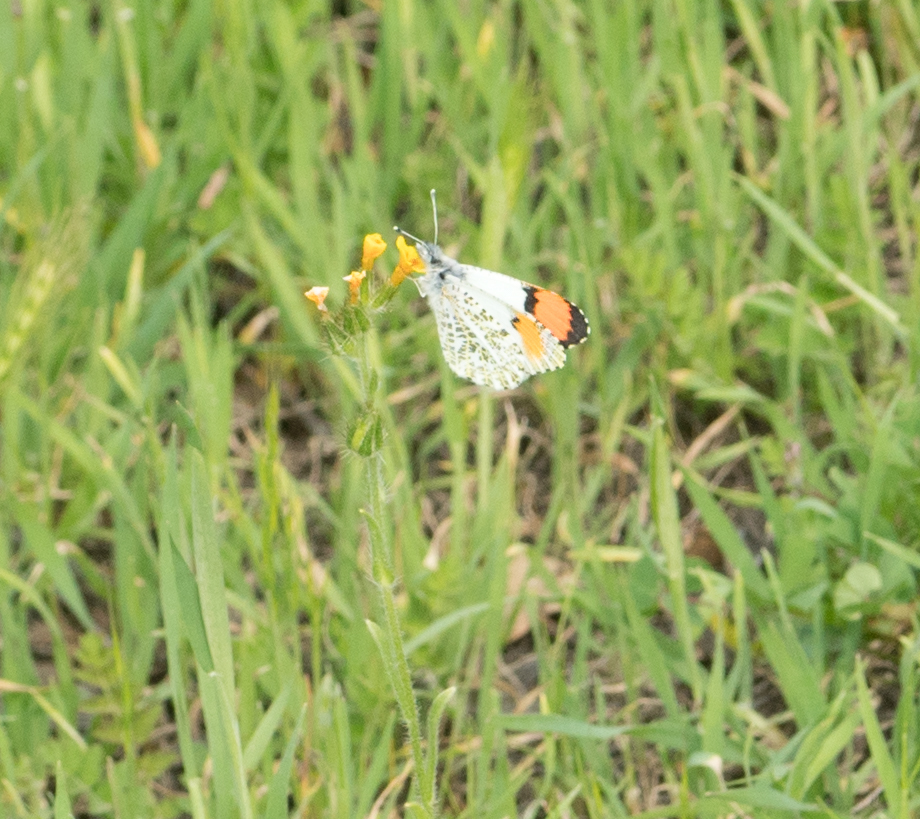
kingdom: Animalia
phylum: Arthropoda
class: Insecta
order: Lepidoptera
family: Pieridae
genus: Anthocharis
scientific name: Anthocharis sara
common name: Sara's orangetip
